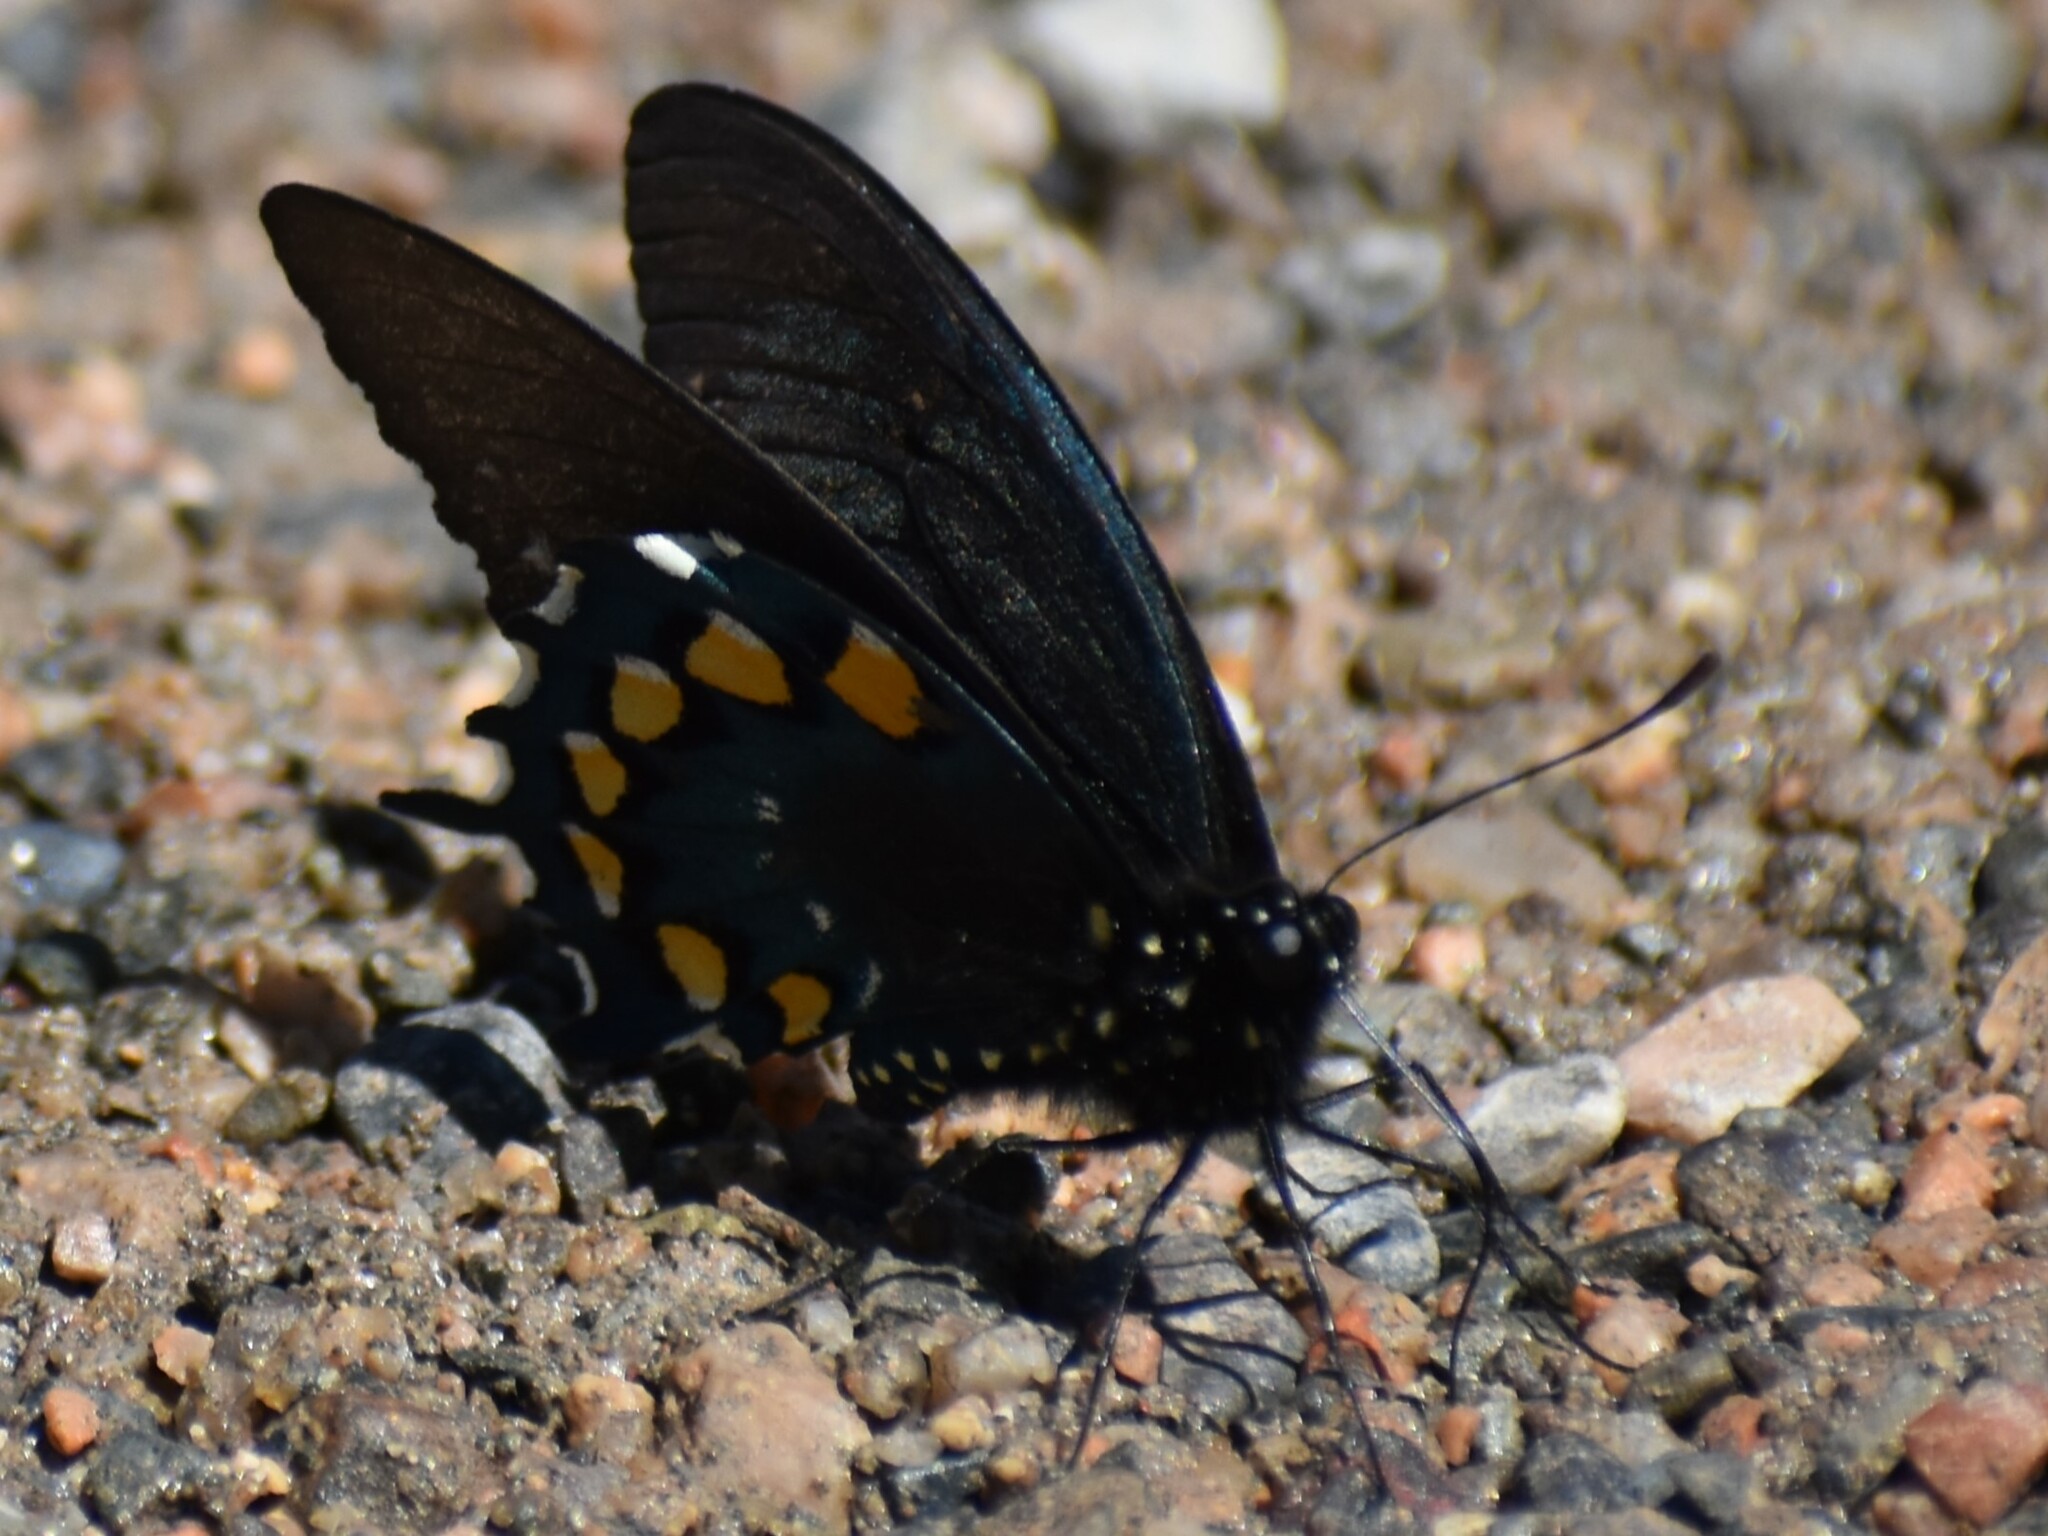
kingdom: Animalia
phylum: Arthropoda
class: Insecta
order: Lepidoptera
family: Papilionidae
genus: Battus
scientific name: Battus philenor
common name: Pipevine swallowtail
